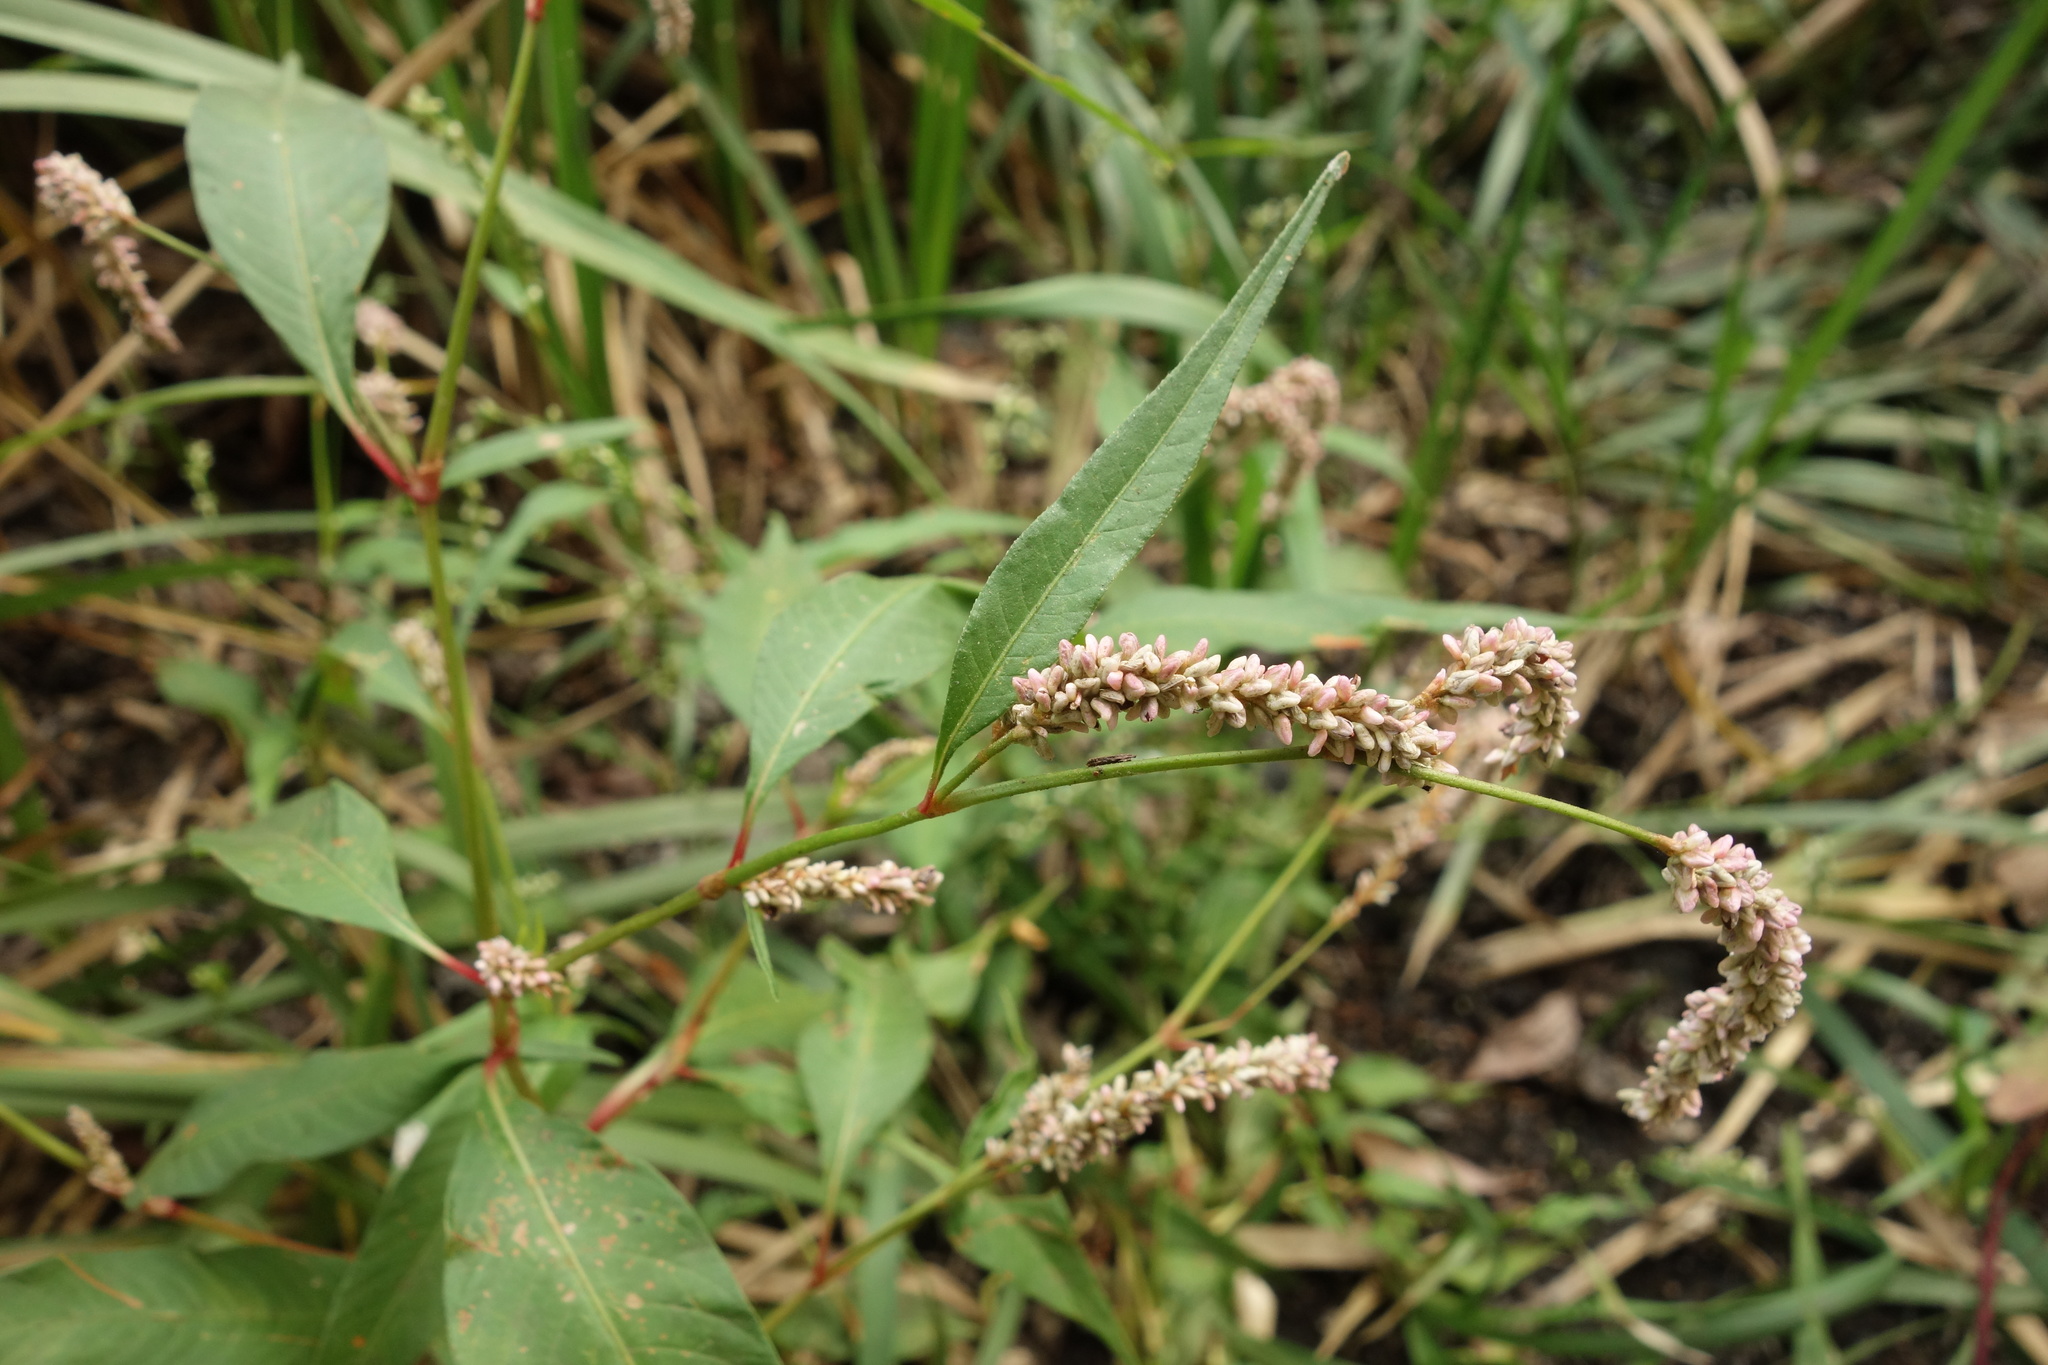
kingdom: Plantae
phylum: Tracheophyta
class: Magnoliopsida
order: Caryophyllales
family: Polygonaceae
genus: Persicaria
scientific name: Persicaria lapathifolia
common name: Curlytop knotweed
